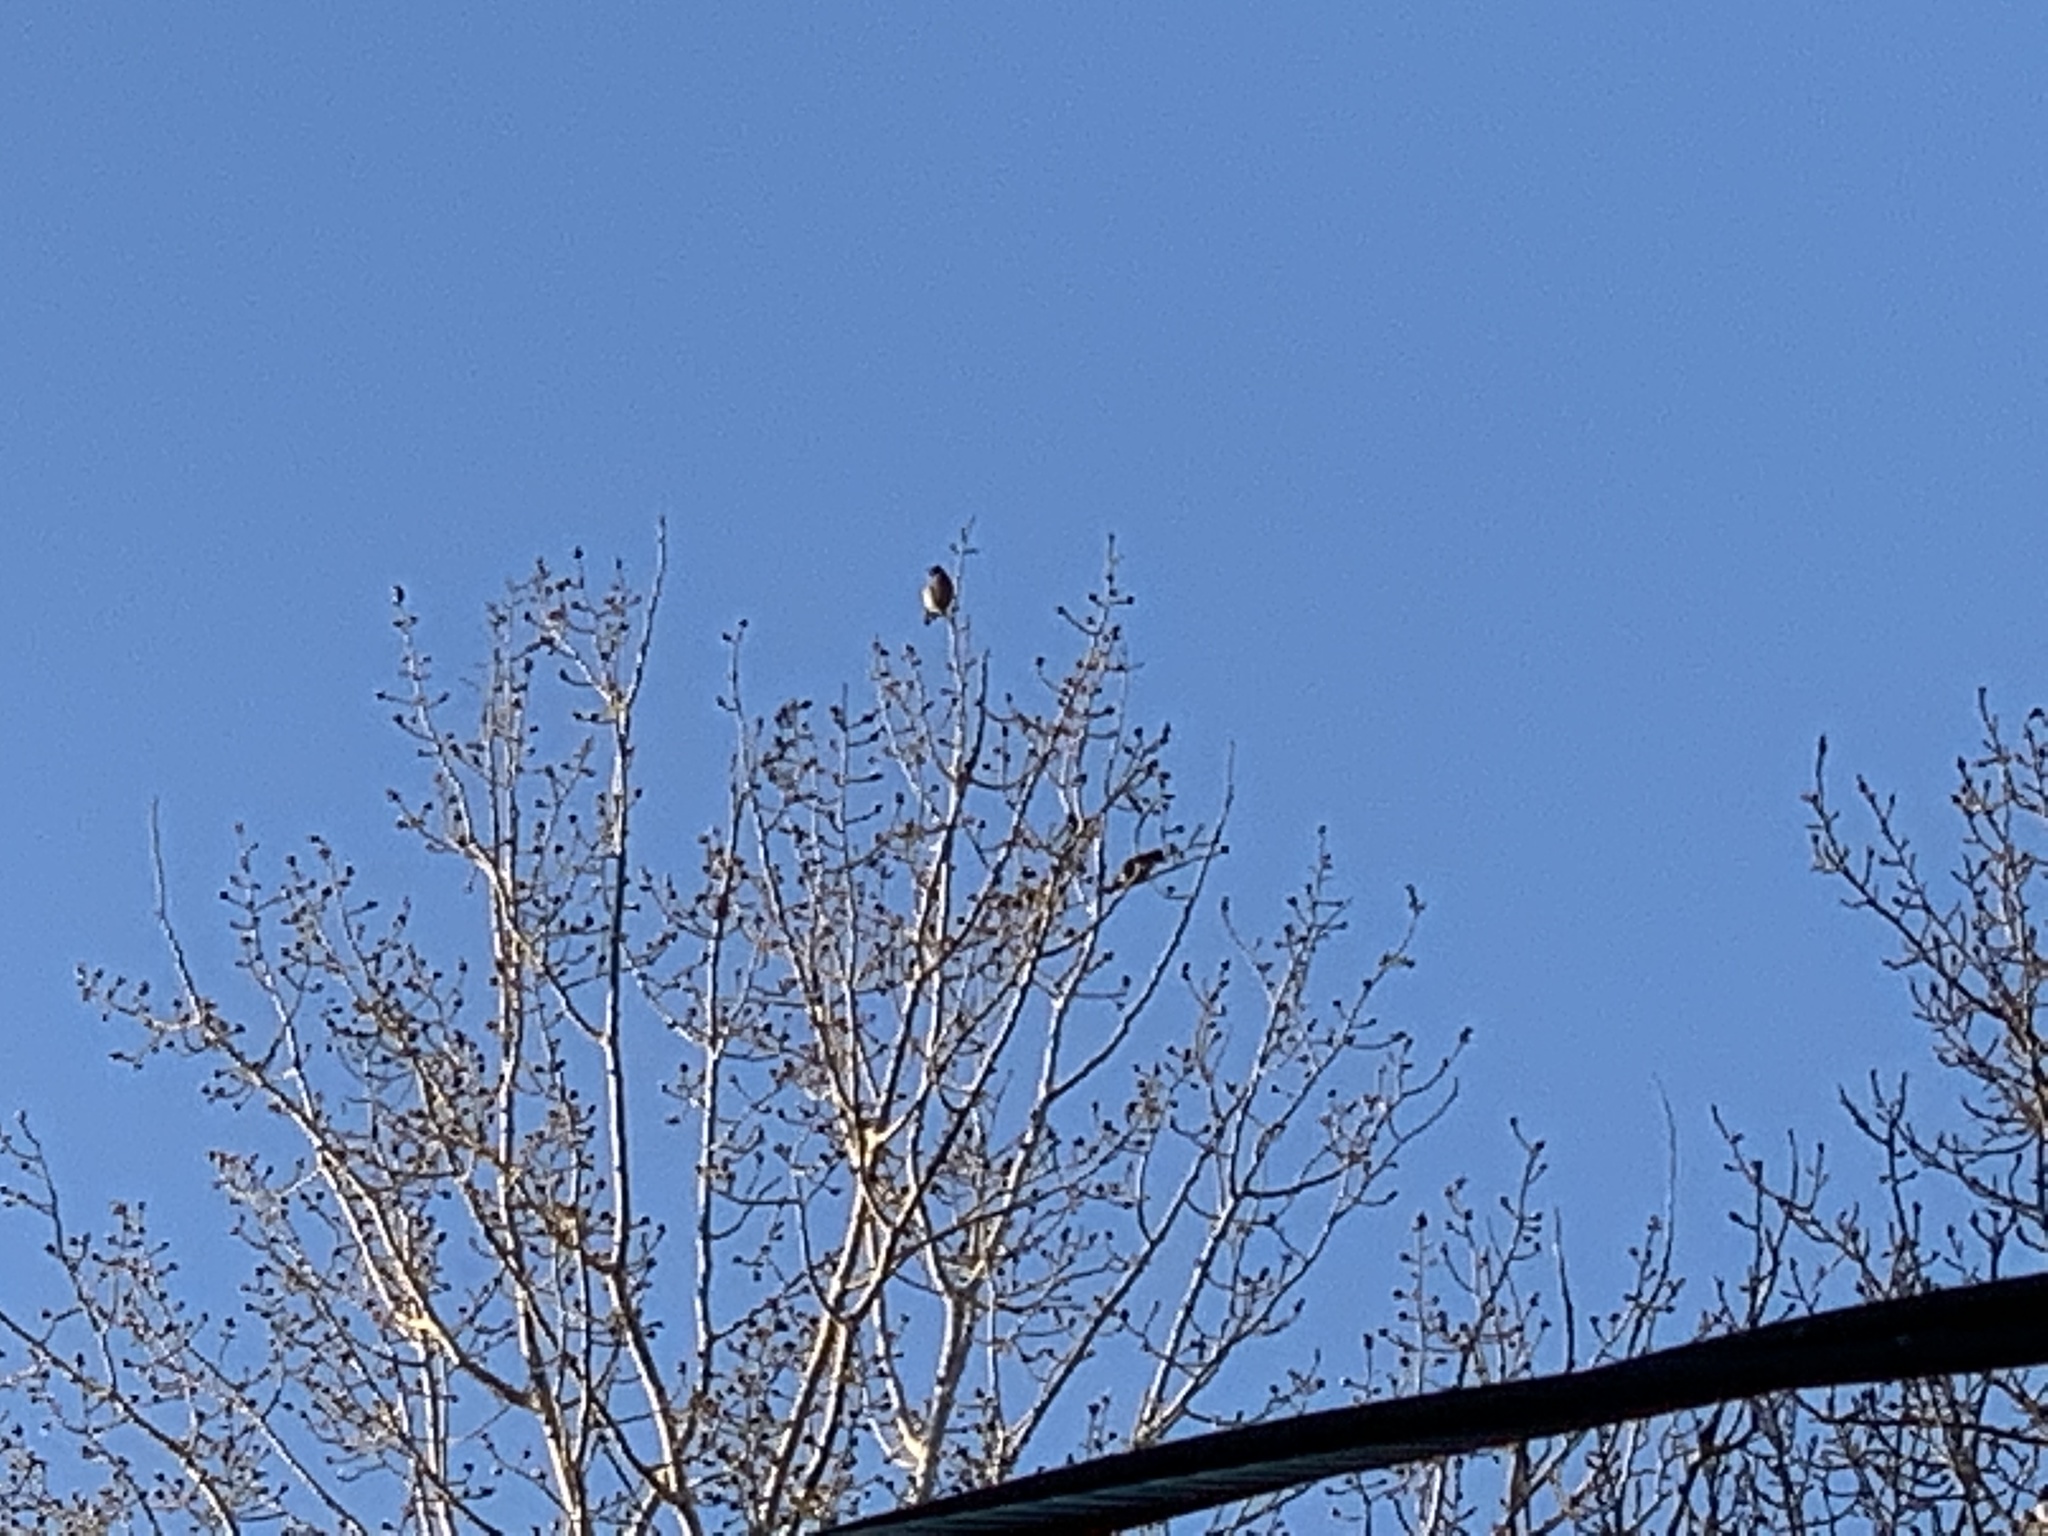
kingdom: Animalia
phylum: Chordata
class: Aves
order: Passeriformes
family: Bombycillidae
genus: Bombycilla
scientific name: Bombycilla cedrorum
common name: Cedar waxwing
